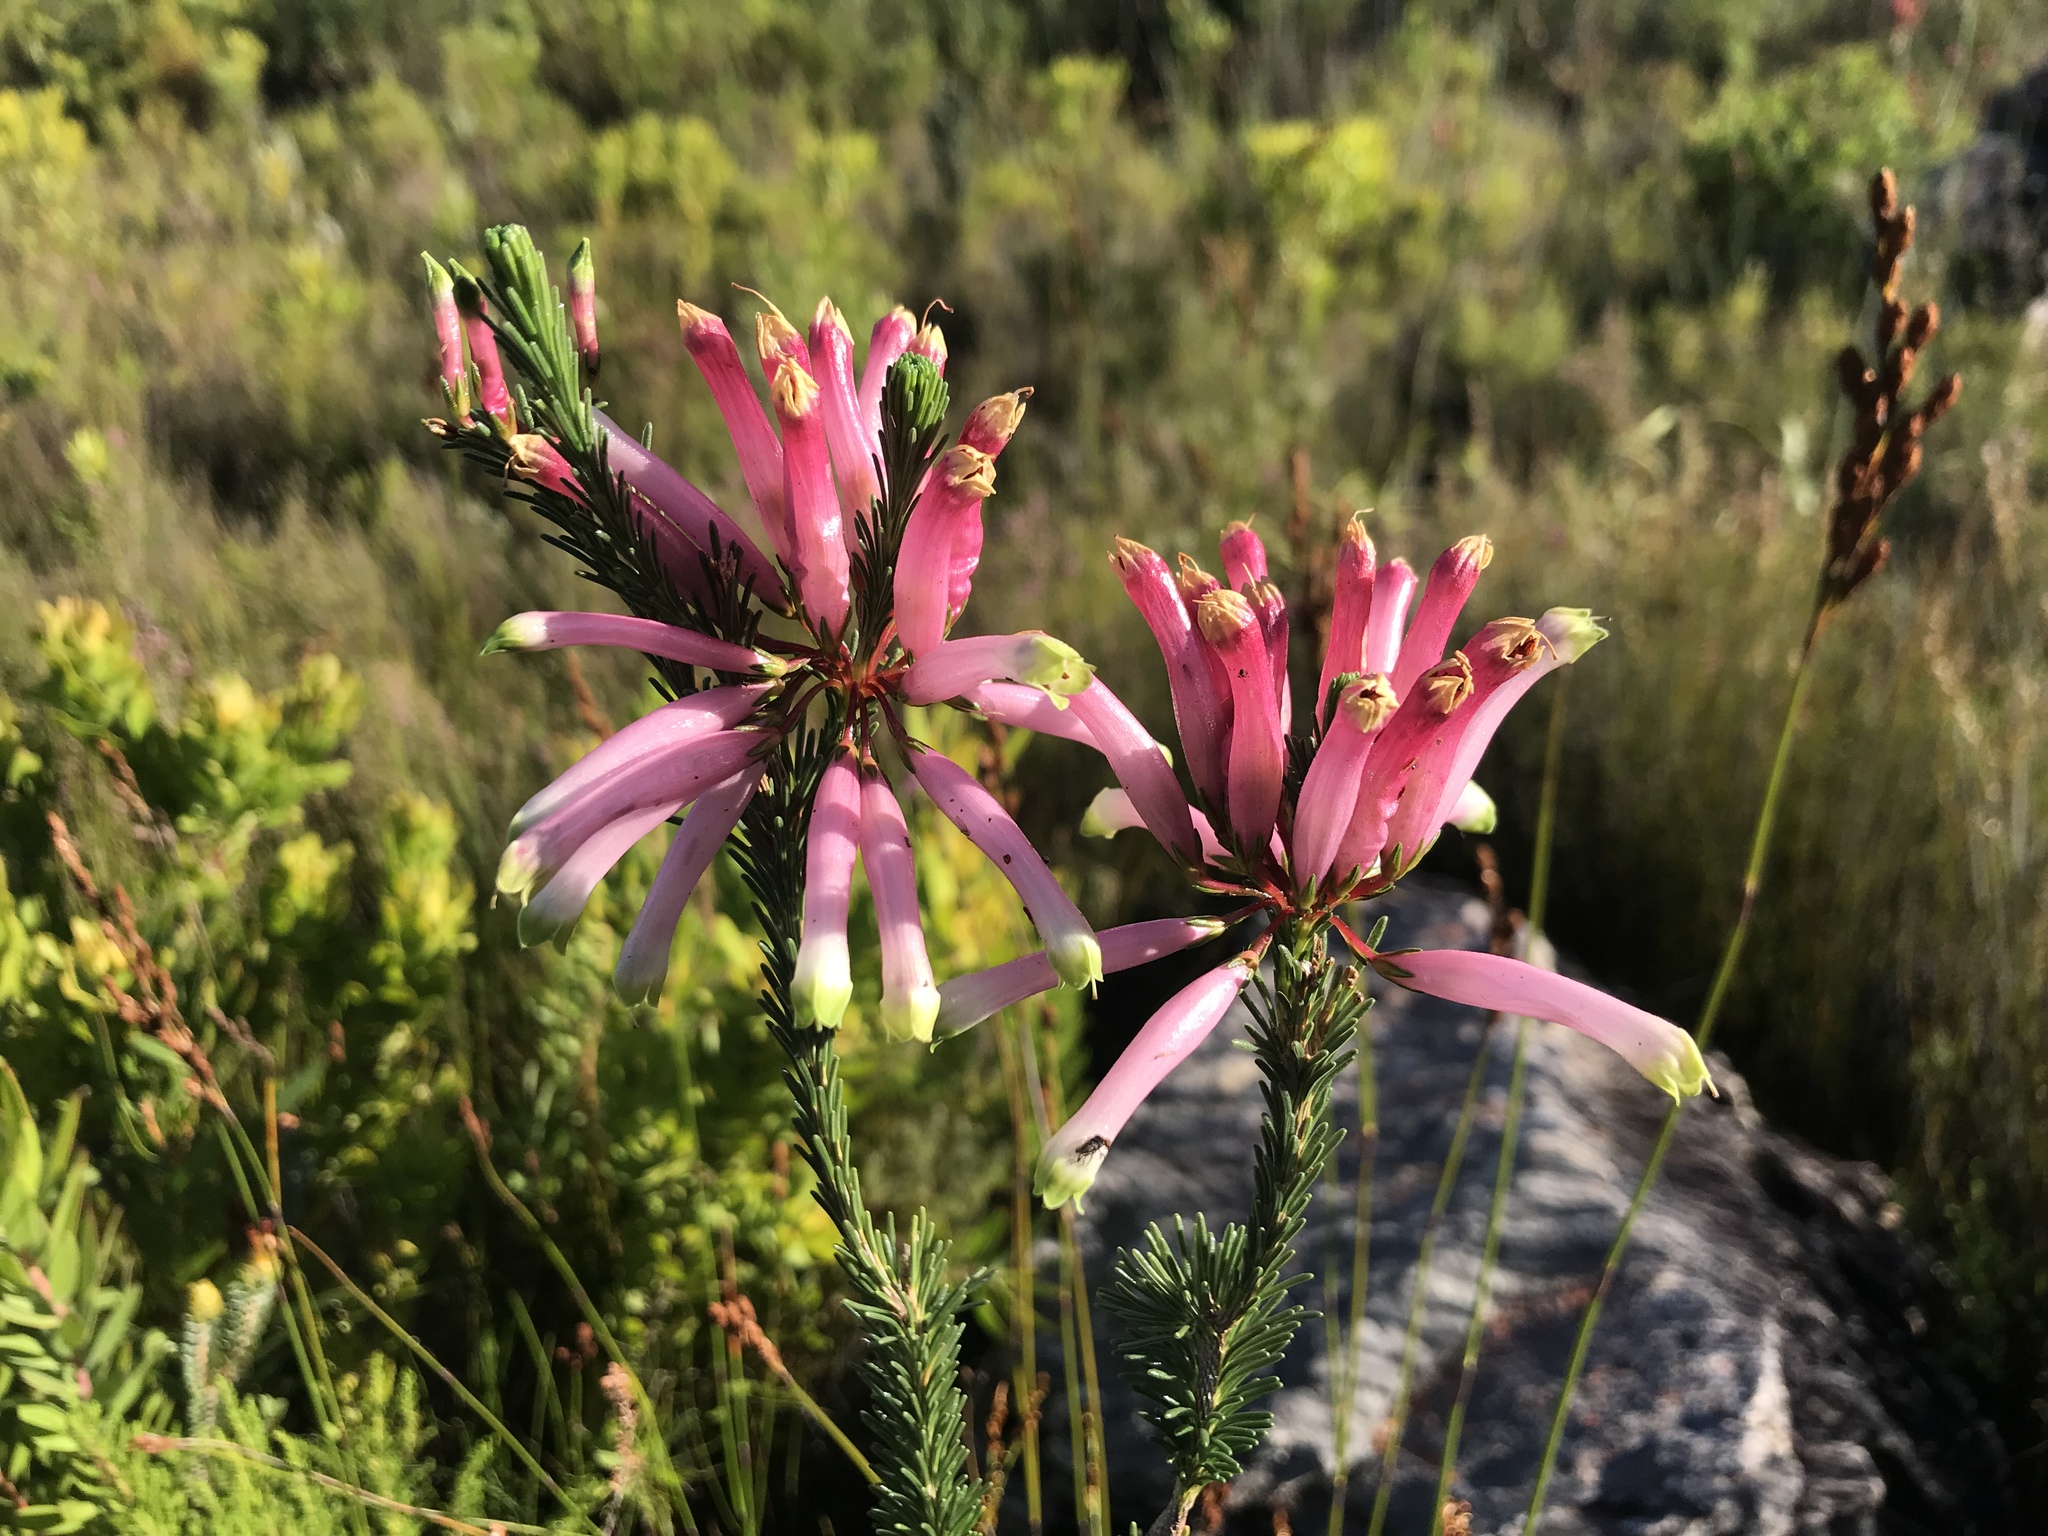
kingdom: Plantae
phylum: Tracheophyta
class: Magnoliopsida
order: Ericales
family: Ericaceae
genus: Erica
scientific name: Erica fascicularis
